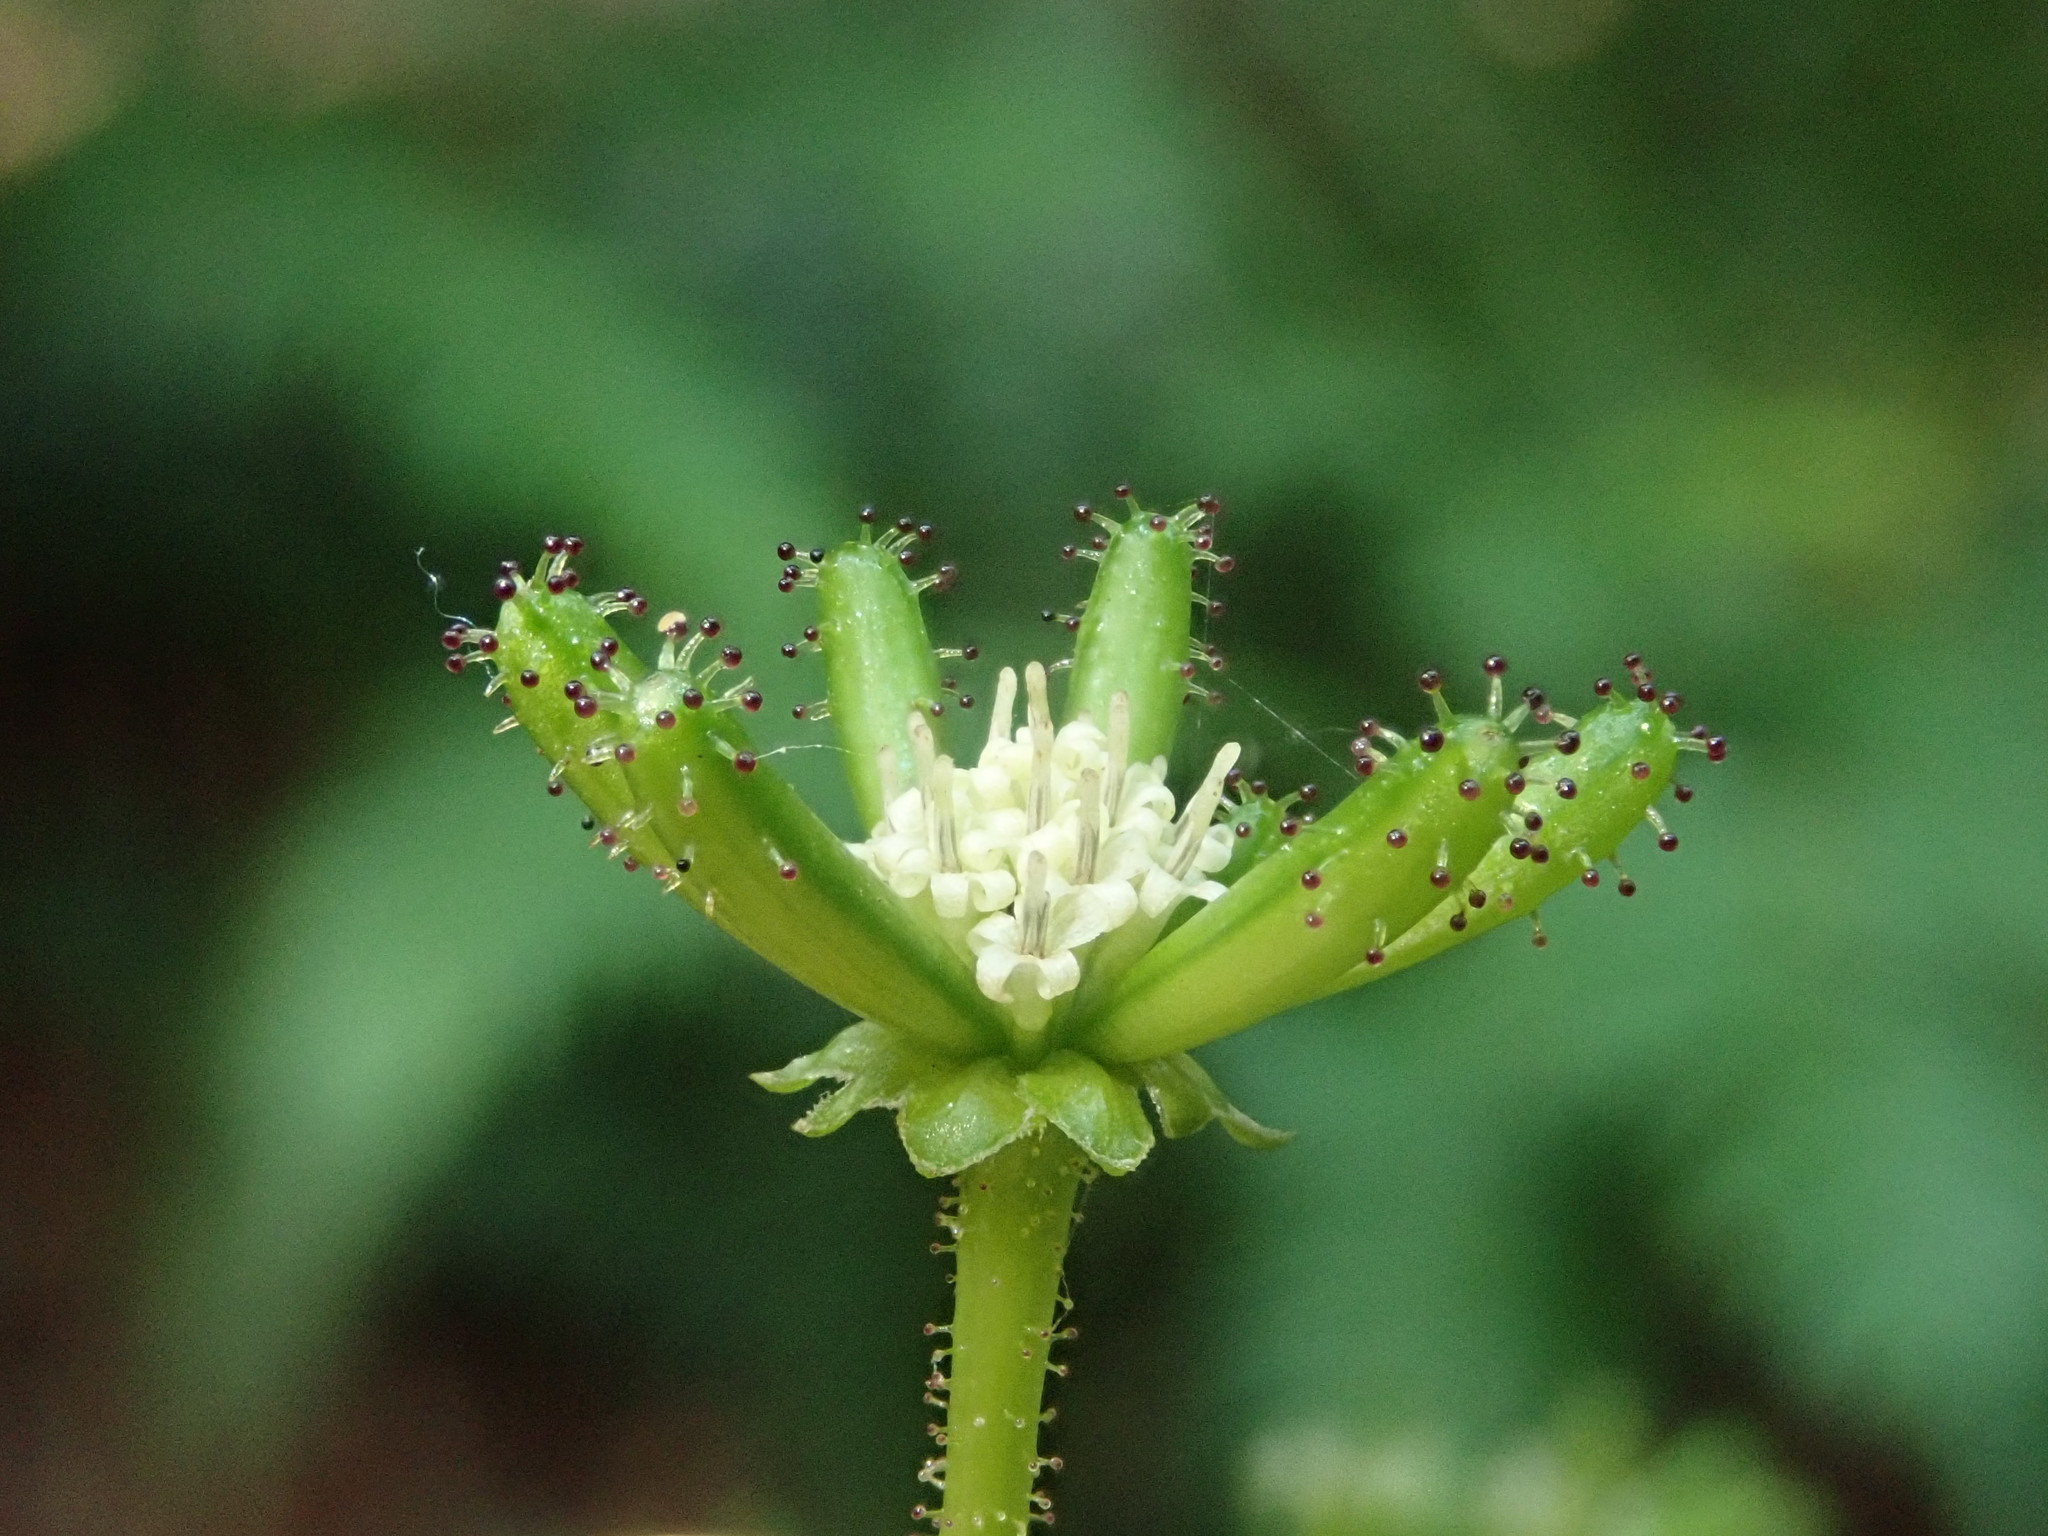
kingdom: Plantae
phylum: Tracheophyta
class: Magnoliopsida
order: Asterales
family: Asteraceae
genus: Adenocaulon
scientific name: Adenocaulon bicolor
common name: Trailplant
